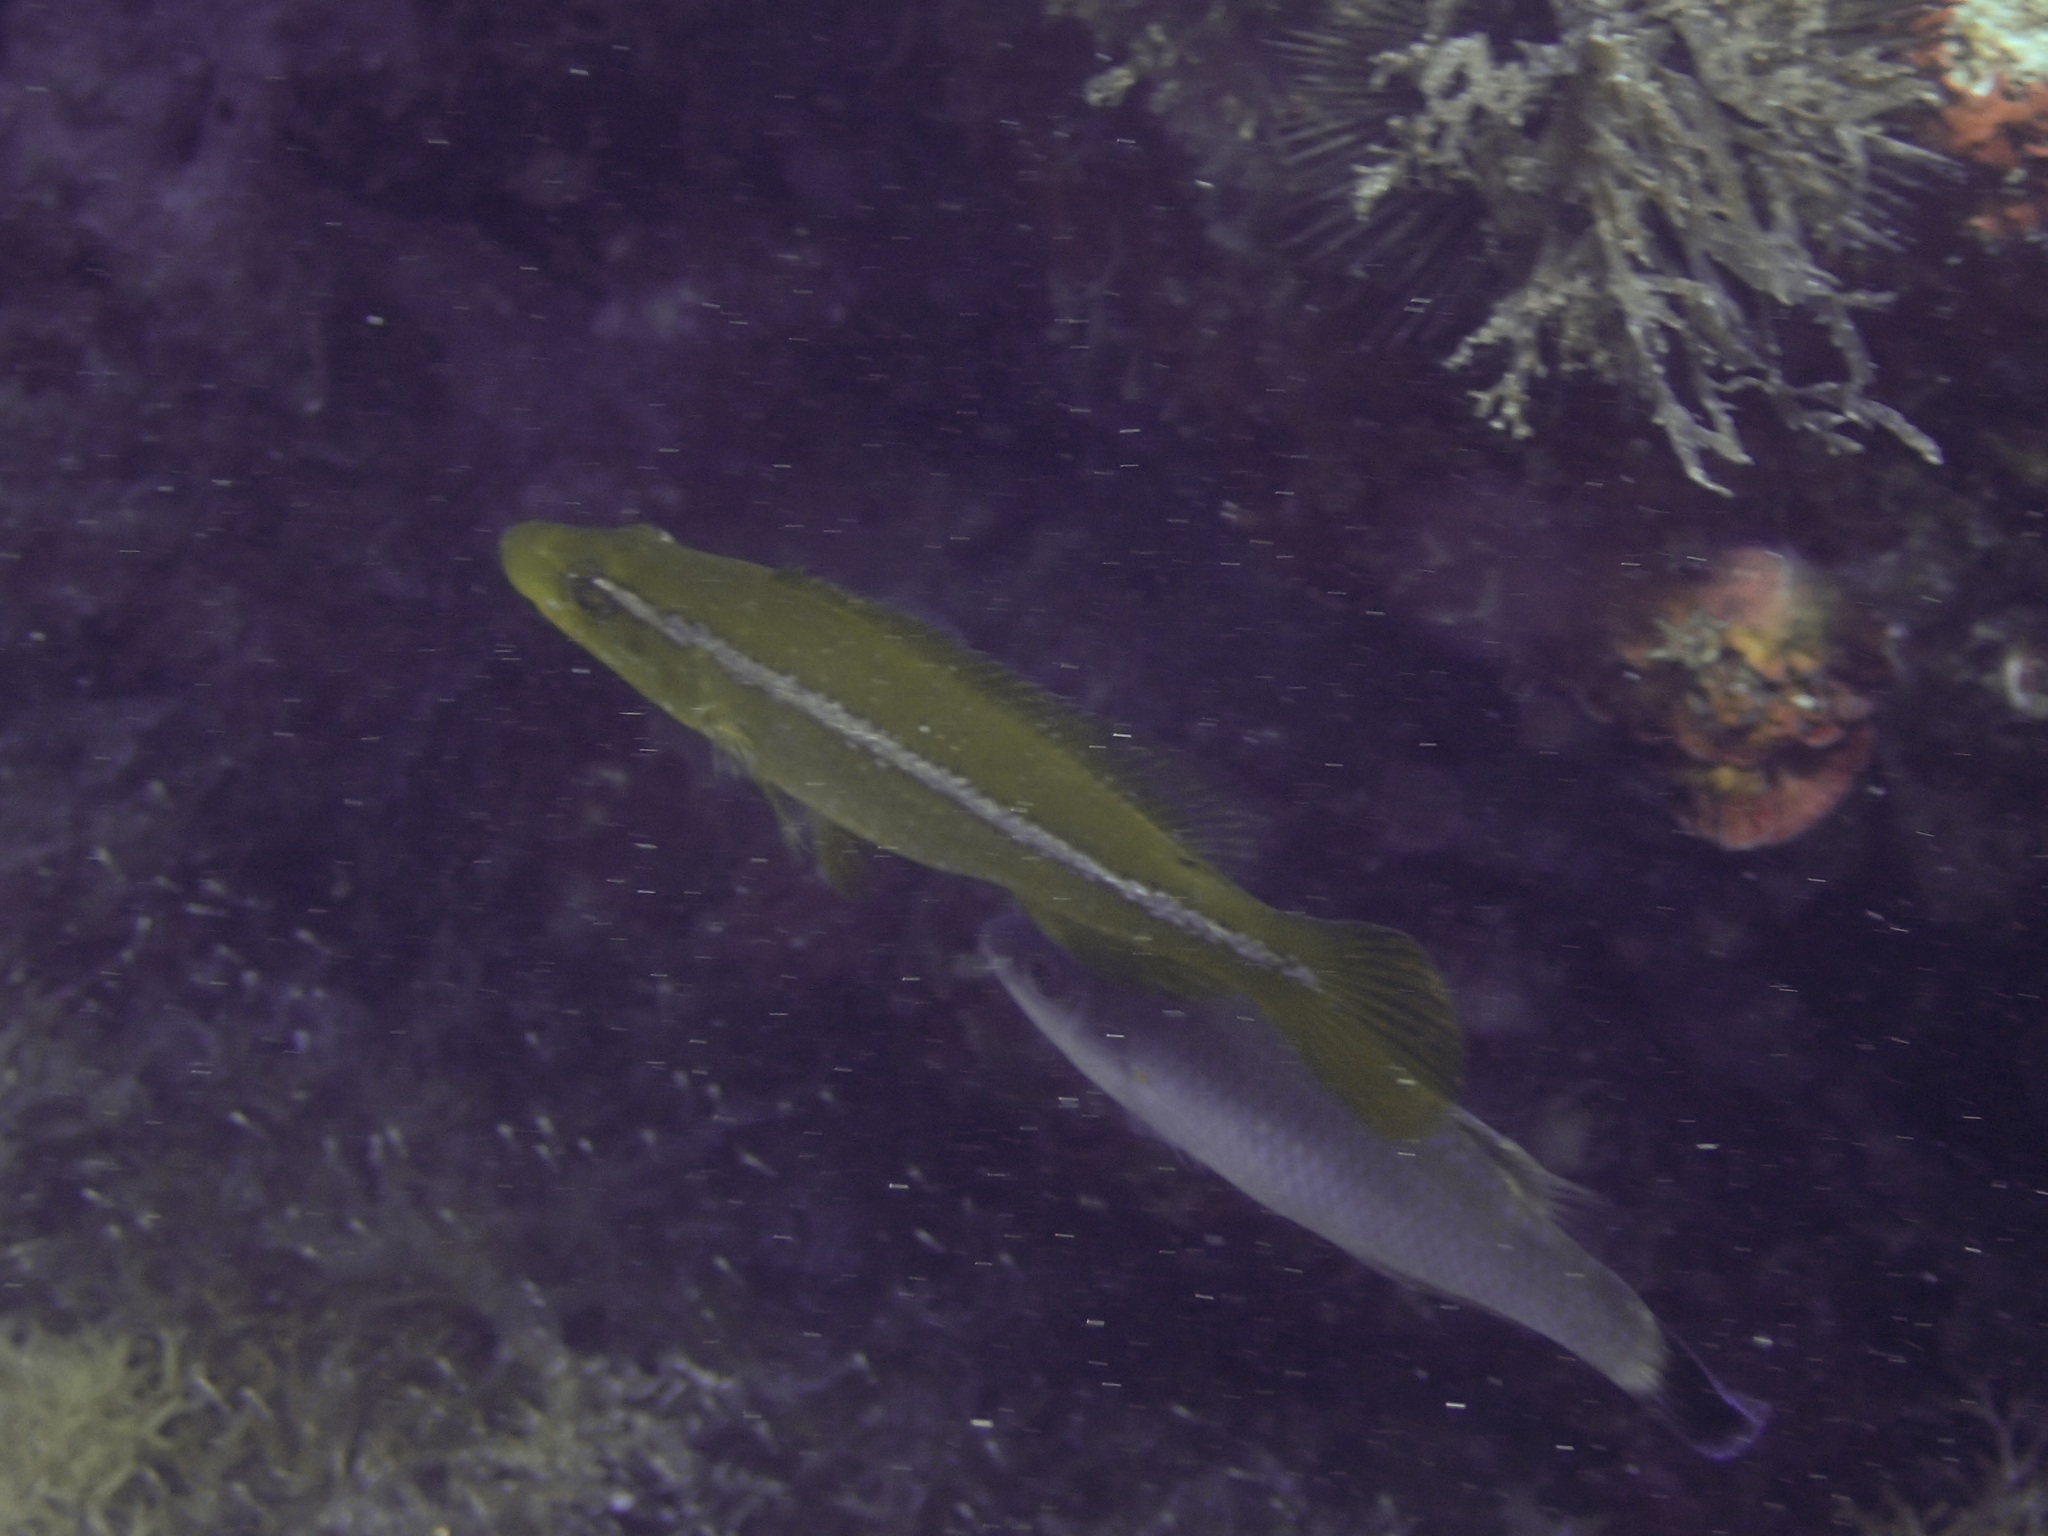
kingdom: Animalia
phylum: Chordata
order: Perciformes
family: Labridae
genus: Labrus
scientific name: Labrus viridis
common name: Green wrasse
